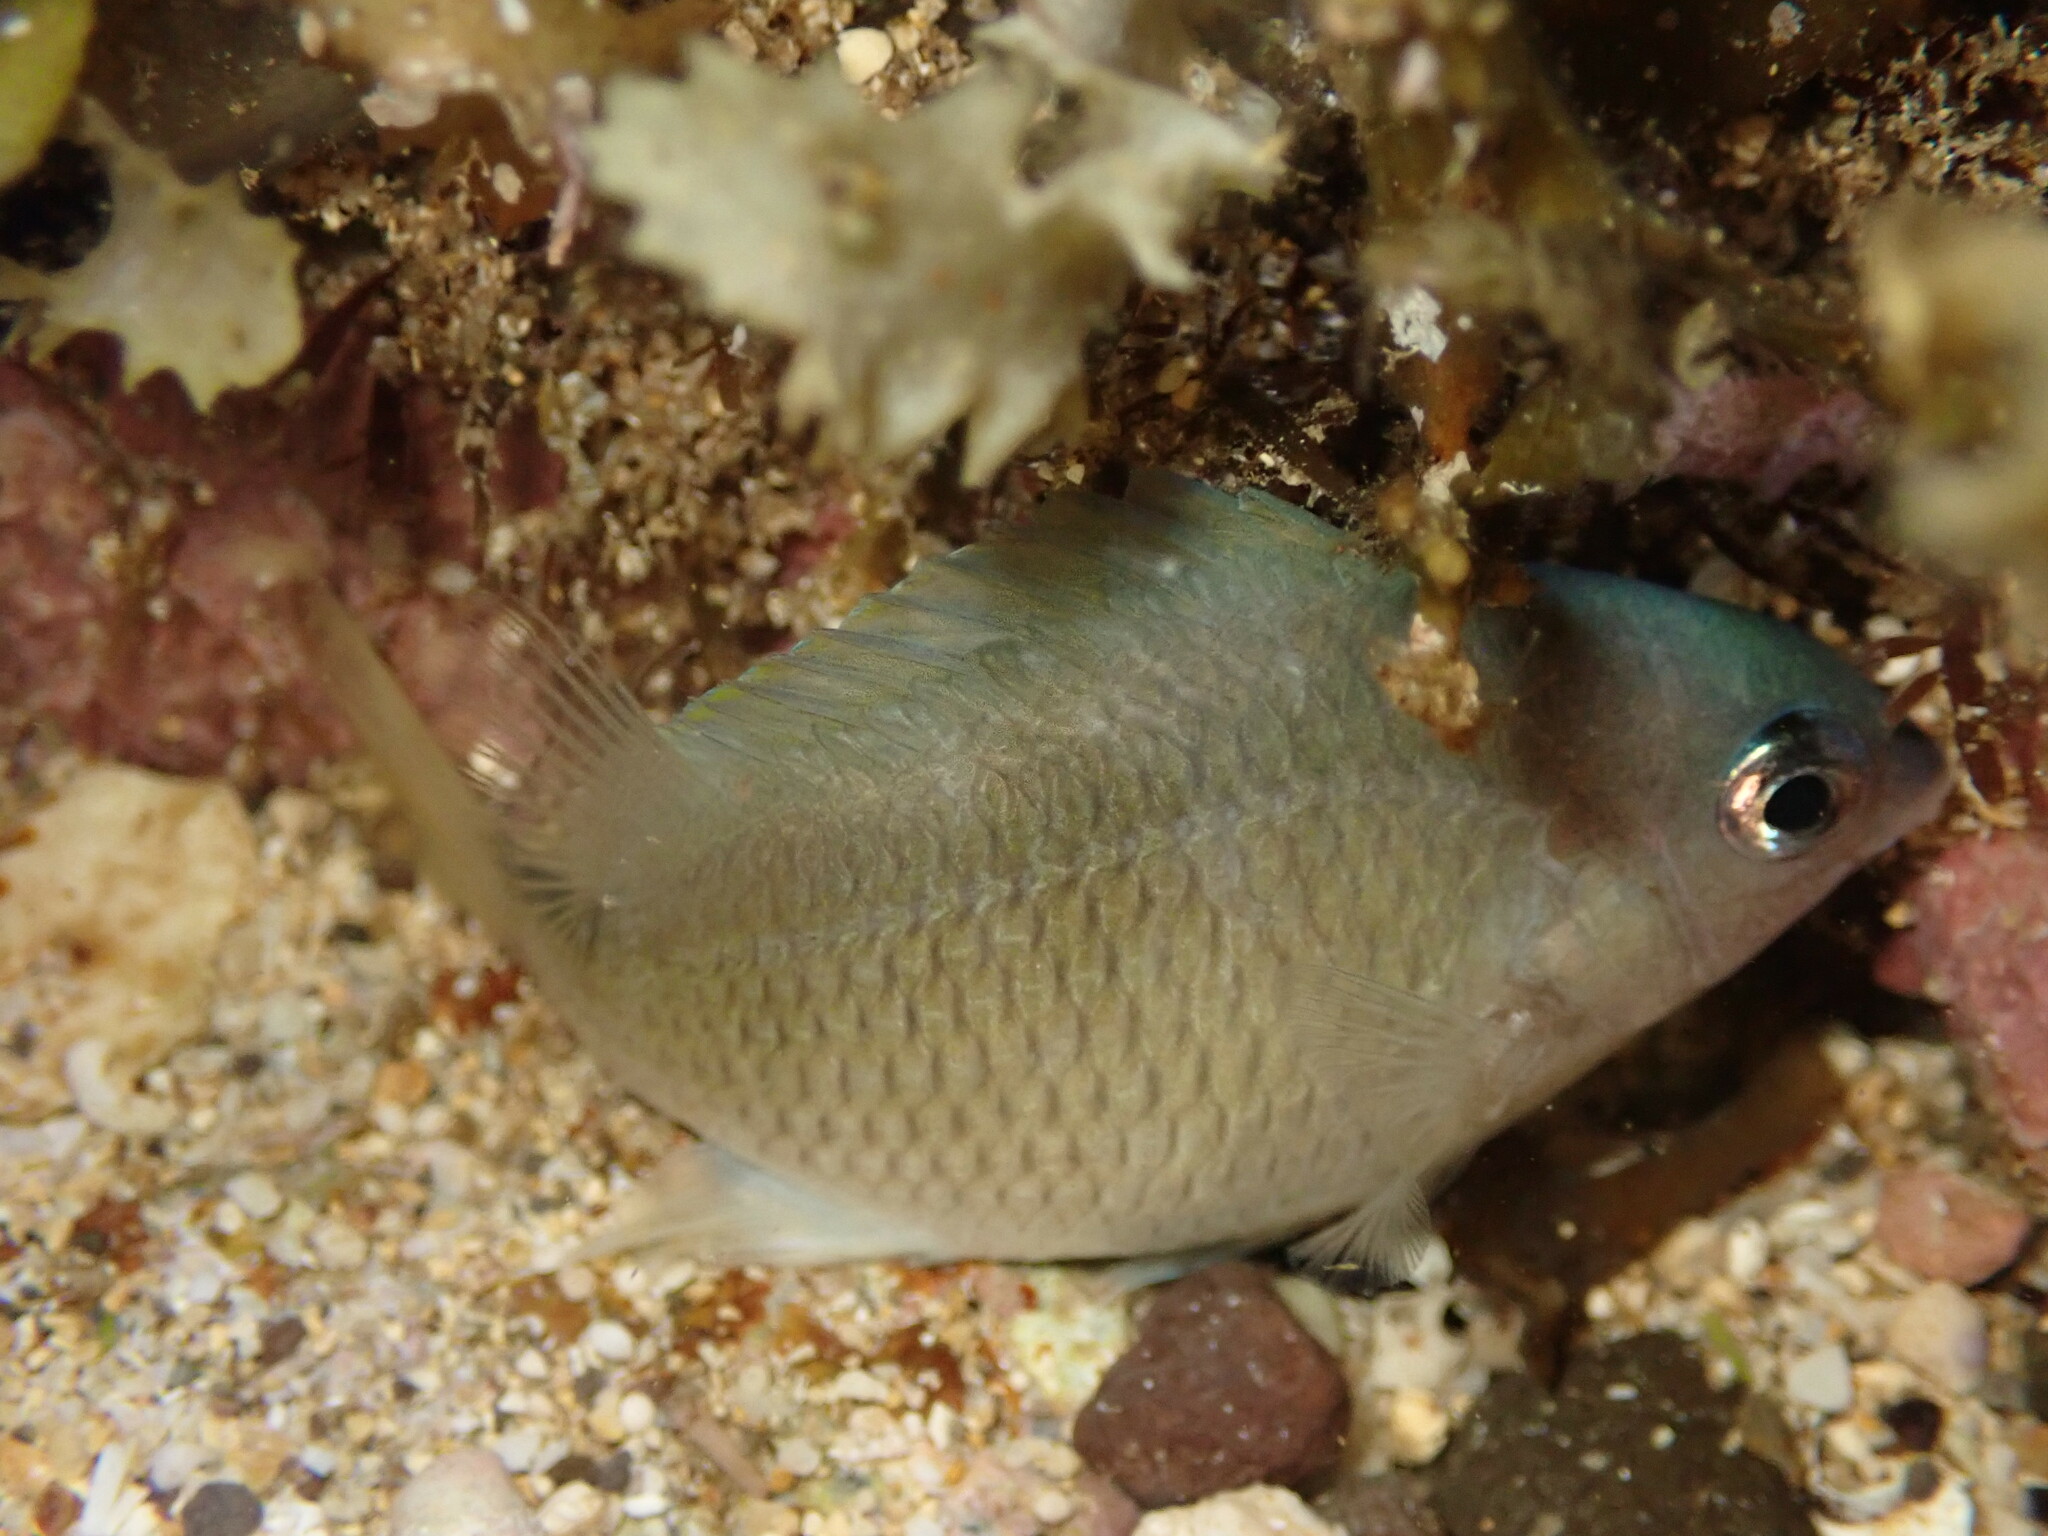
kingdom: Animalia
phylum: Chordata
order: Perciformes
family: Pomacentridae
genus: Plectroglyphidodon
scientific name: Plectroglyphidodon imparipennis
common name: Brighteye damsel
